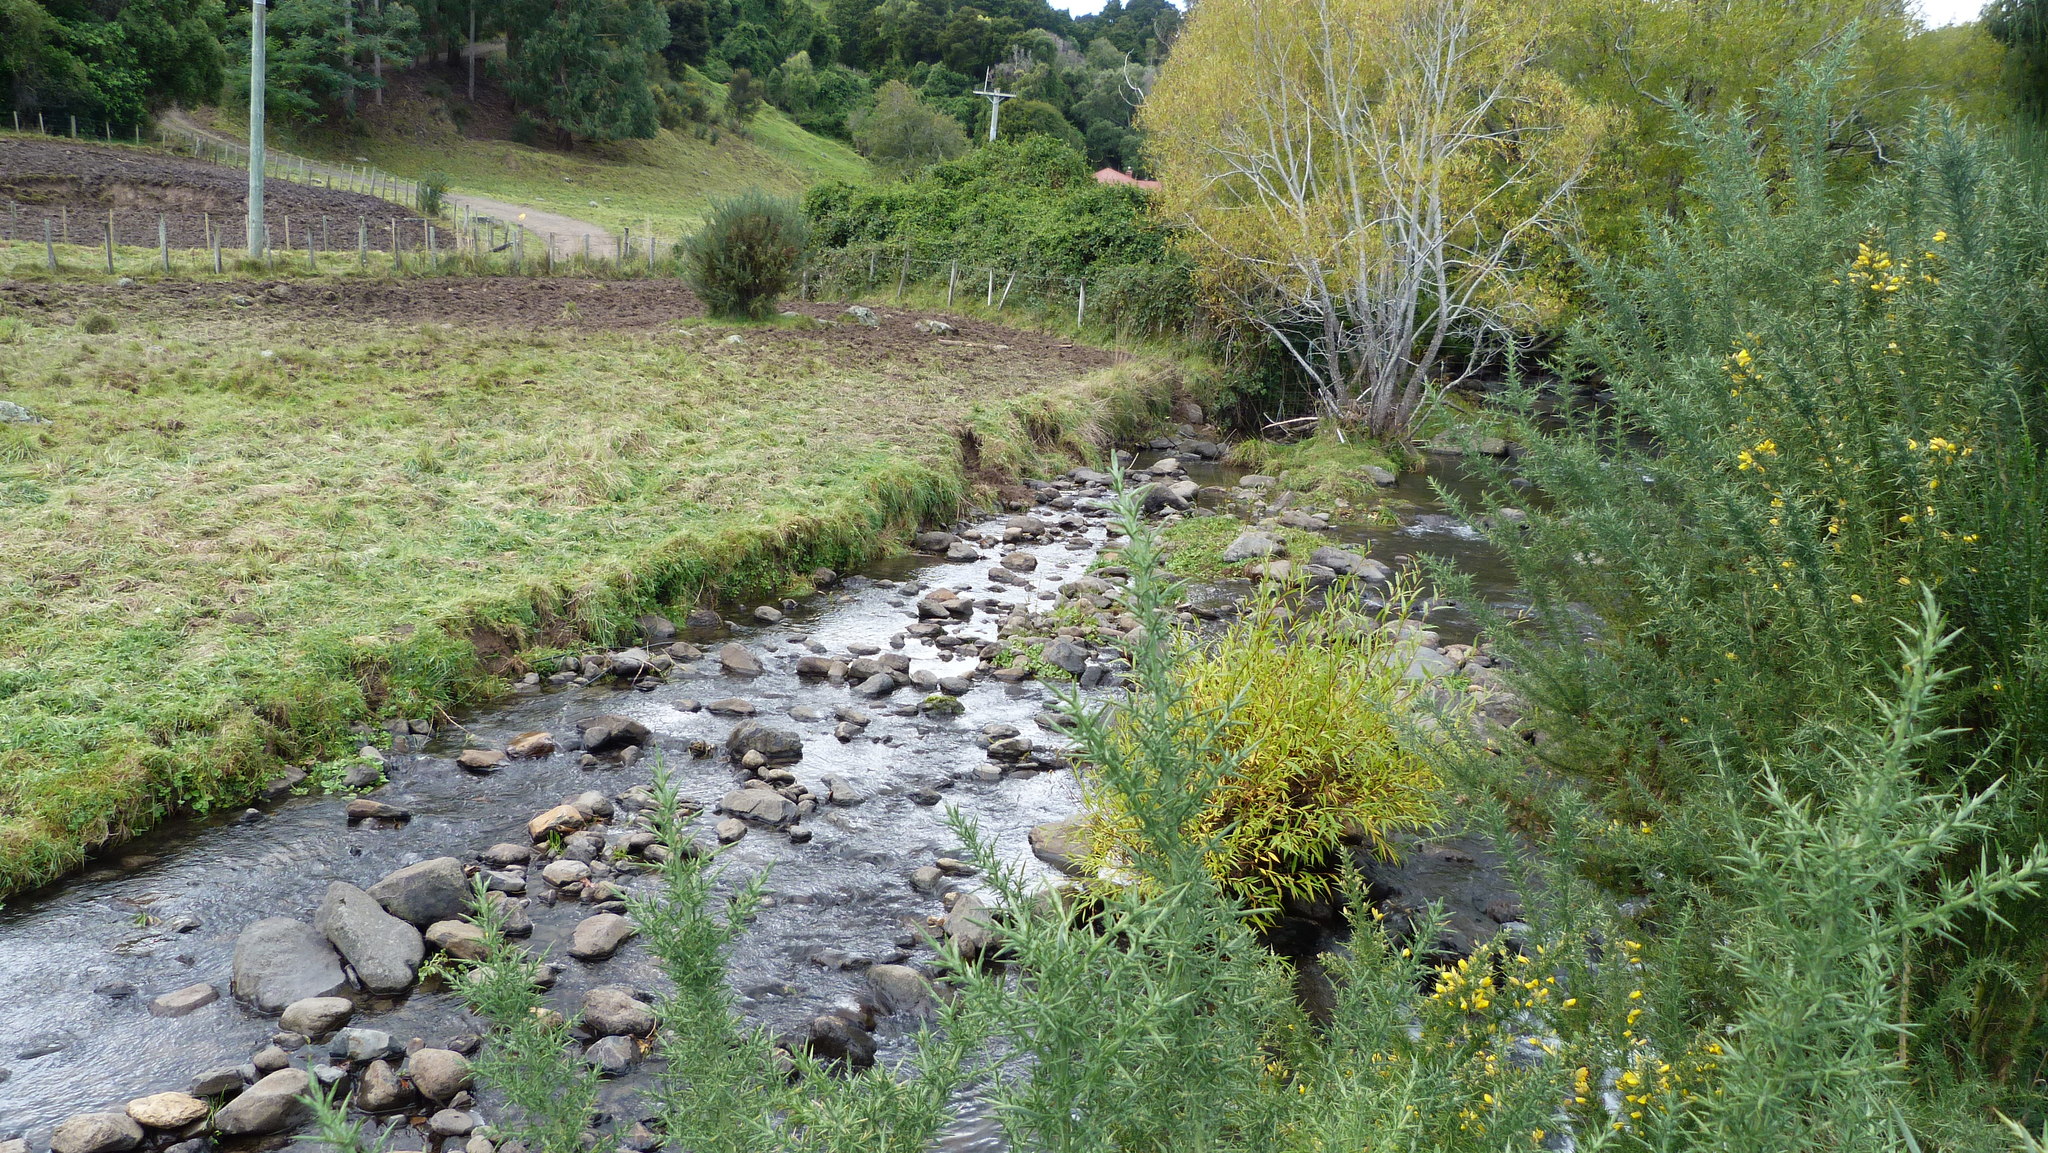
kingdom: Plantae
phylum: Tracheophyta
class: Magnoliopsida
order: Malpighiales
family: Salicaceae
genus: Salix
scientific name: Salix fragilis
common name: Crack willow
